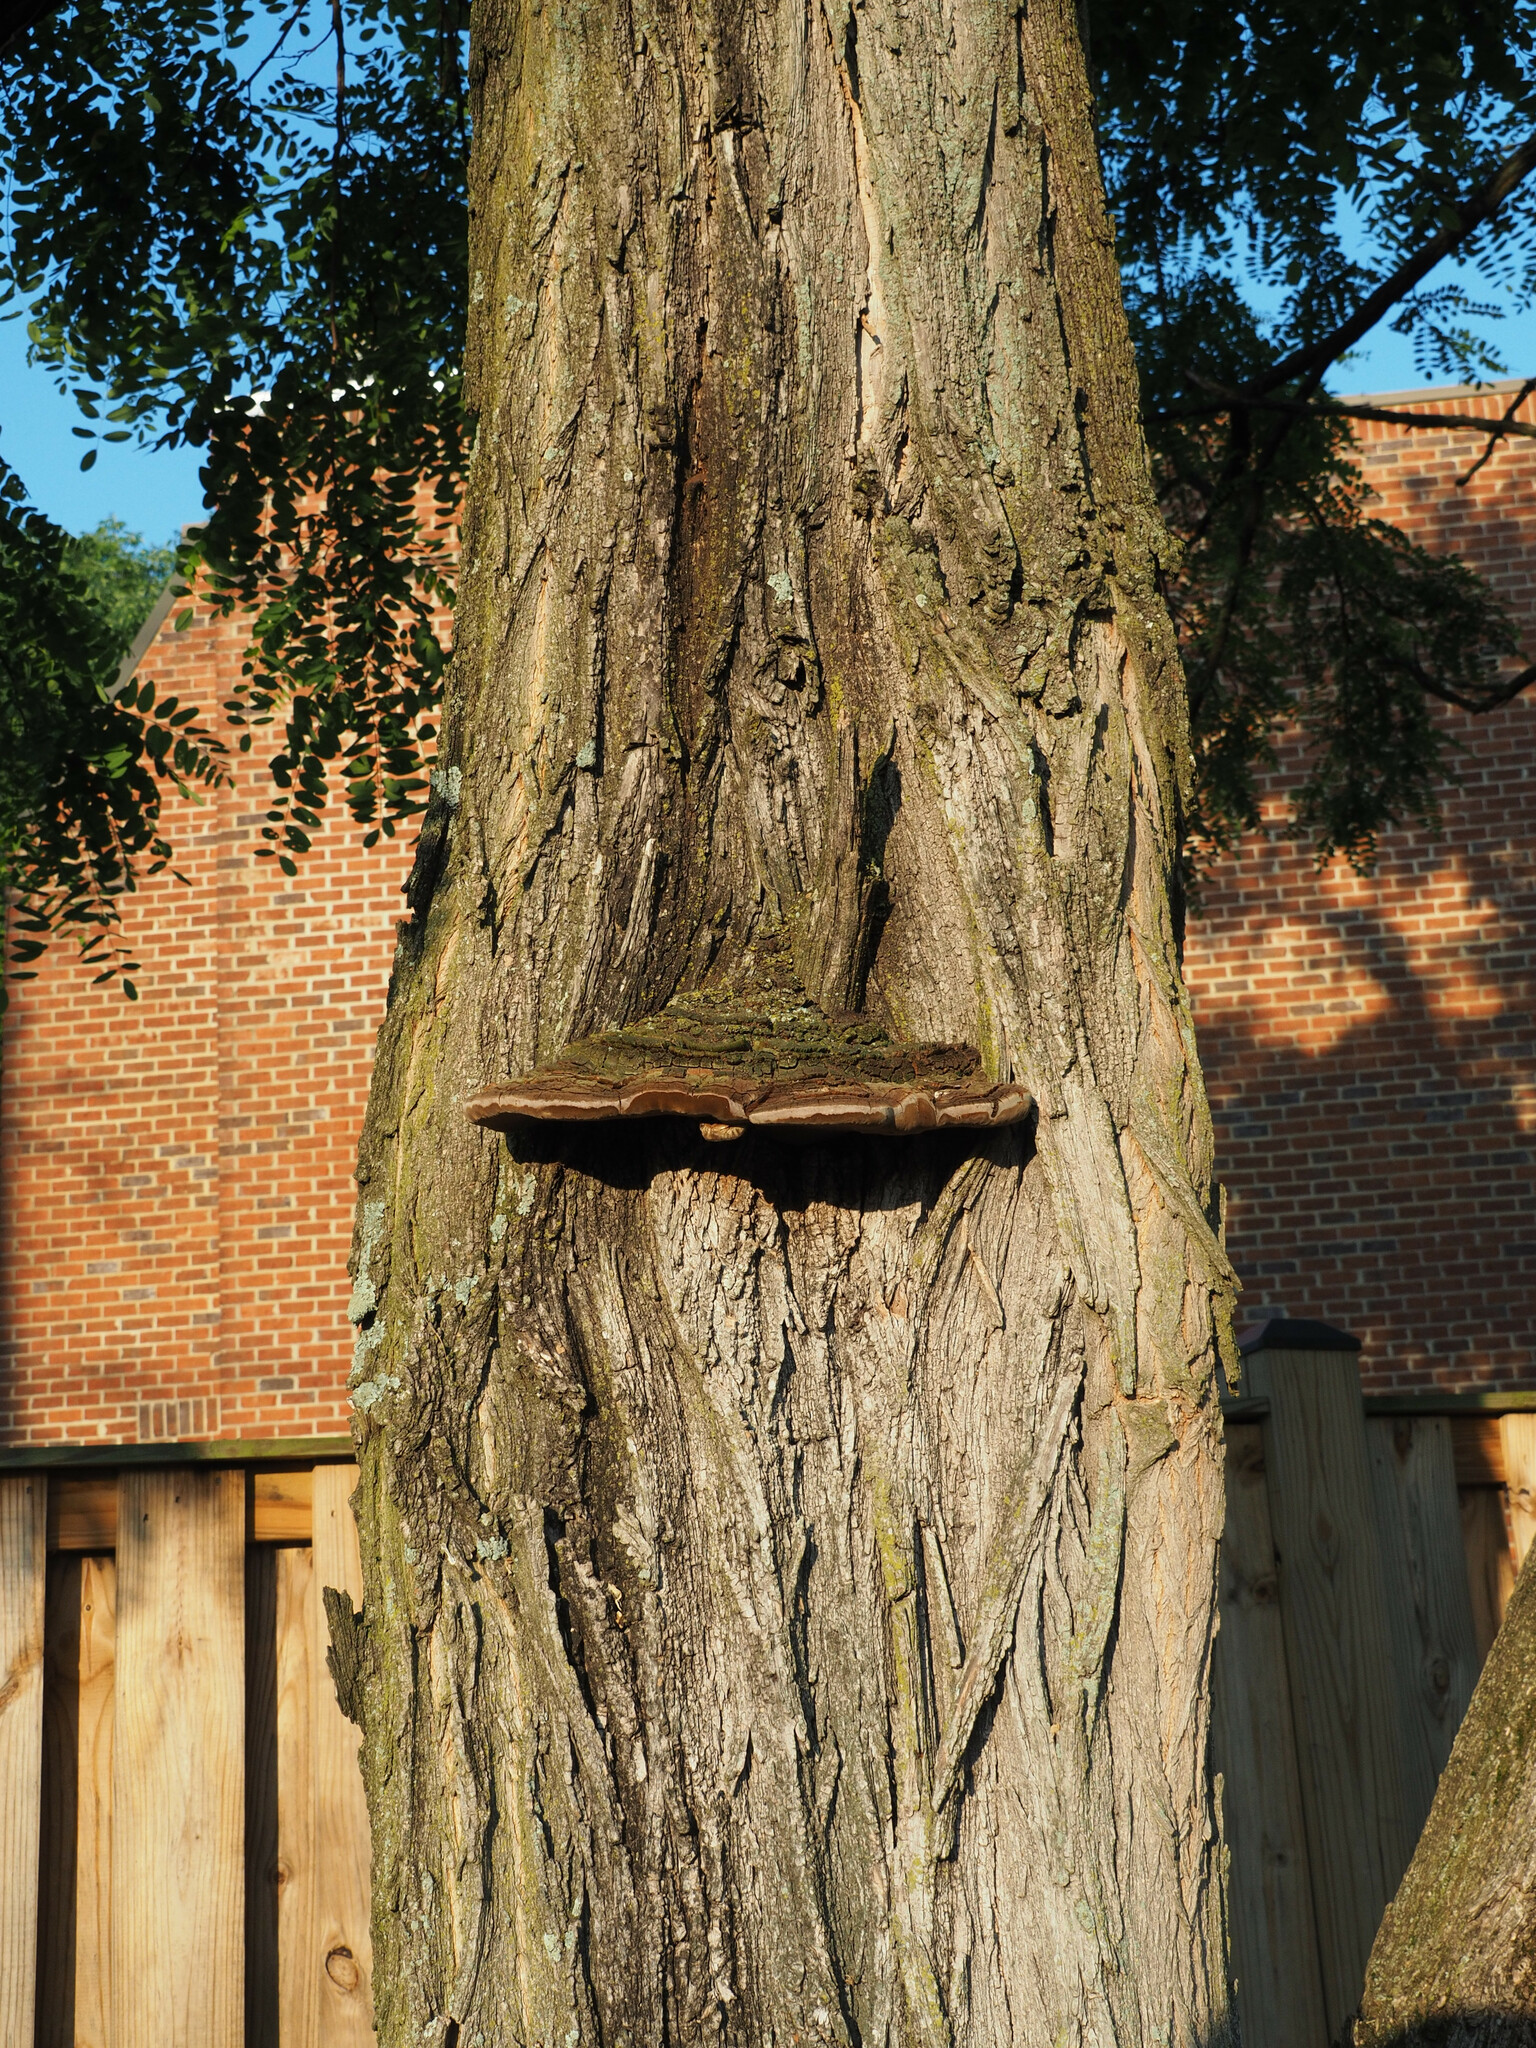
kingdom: Plantae
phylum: Tracheophyta
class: Magnoliopsida
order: Fabales
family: Fabaceae
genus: Robinia
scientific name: Robinia pseudoacacia
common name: Black locust
